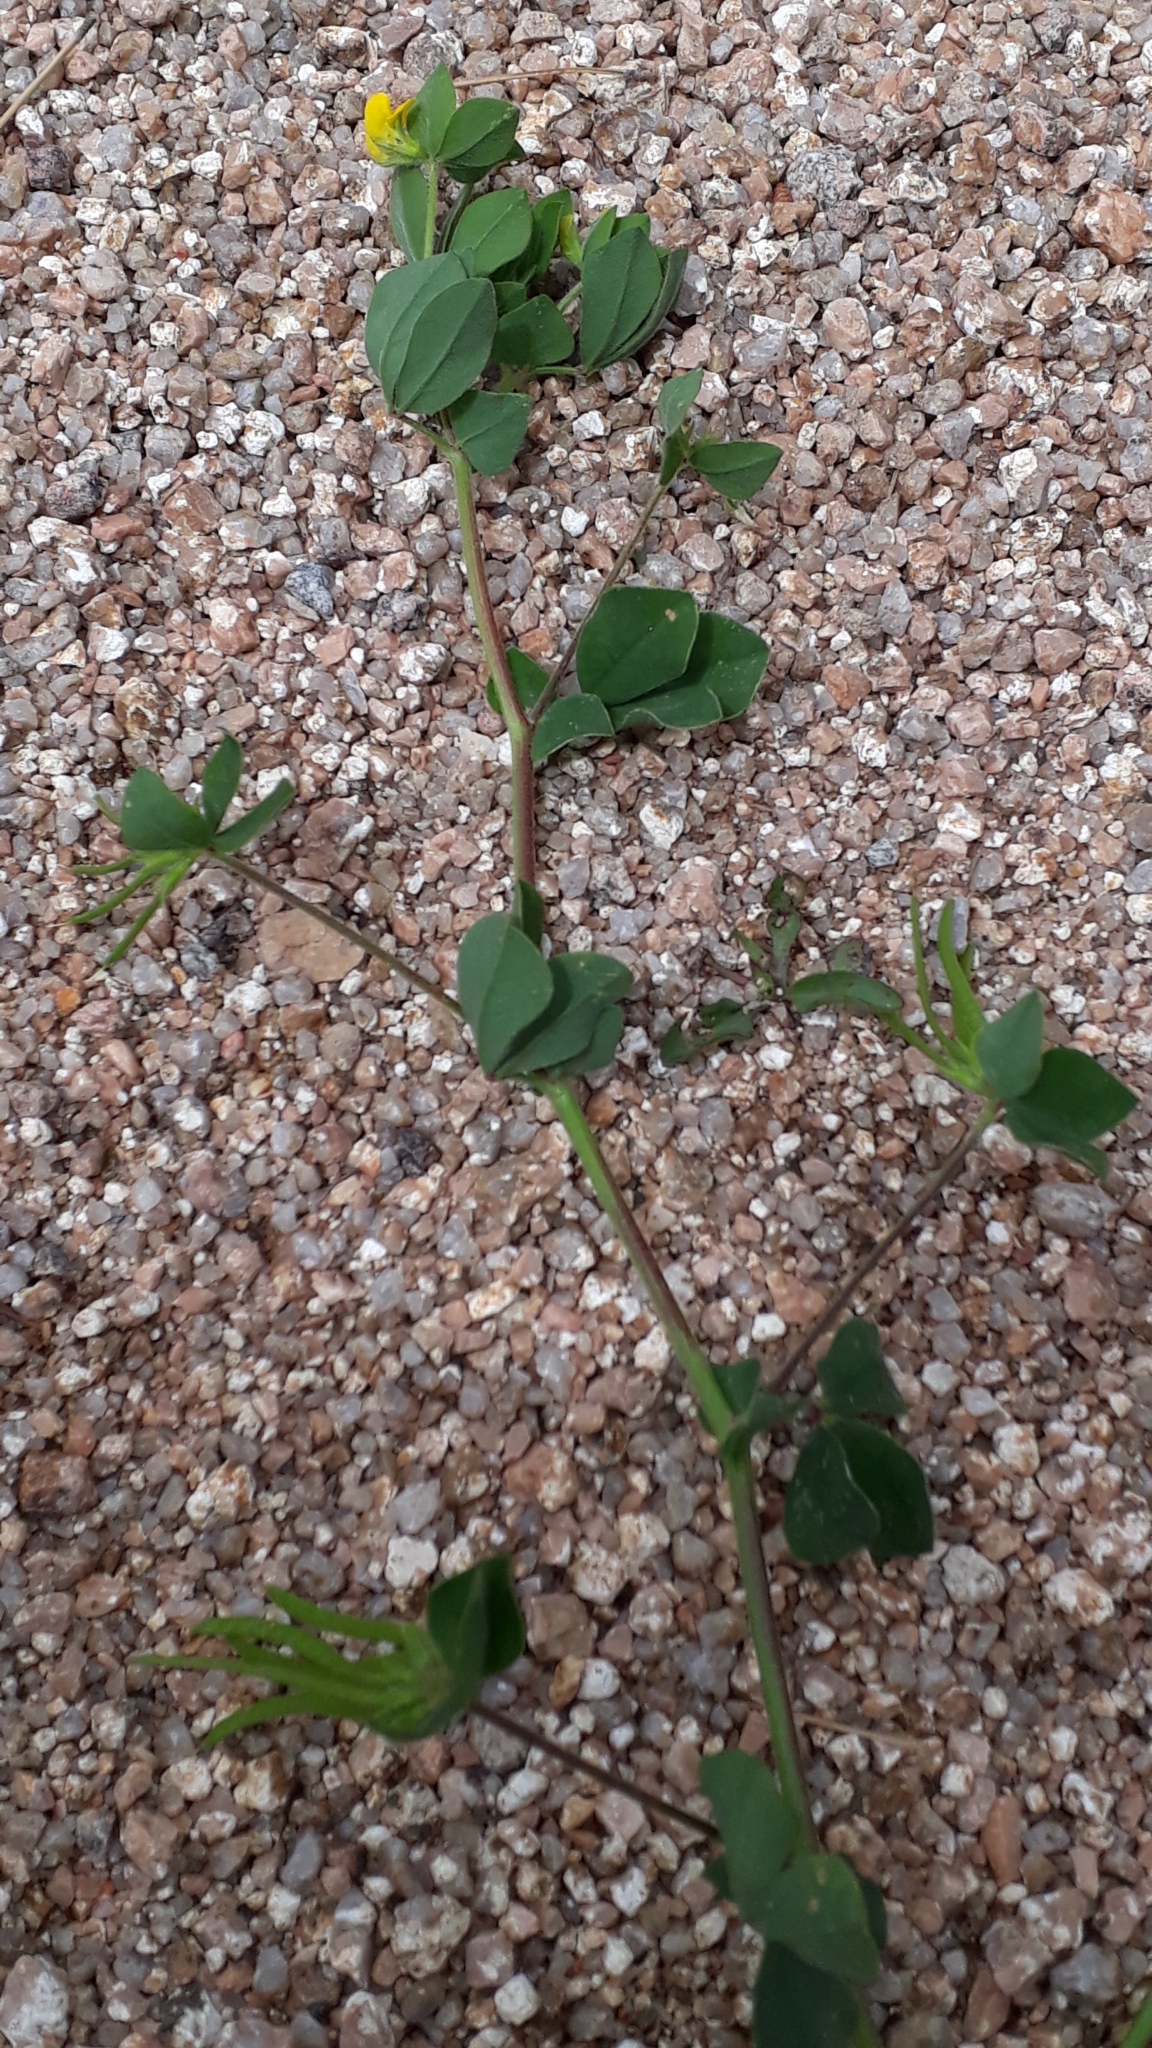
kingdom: Plantae
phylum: Tracheophyta
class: Magnoliopsida
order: Fabales
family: Fabaceae
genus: Lotus
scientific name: Lotus ornithopodioides
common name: Southern bird's-foot trefoil
